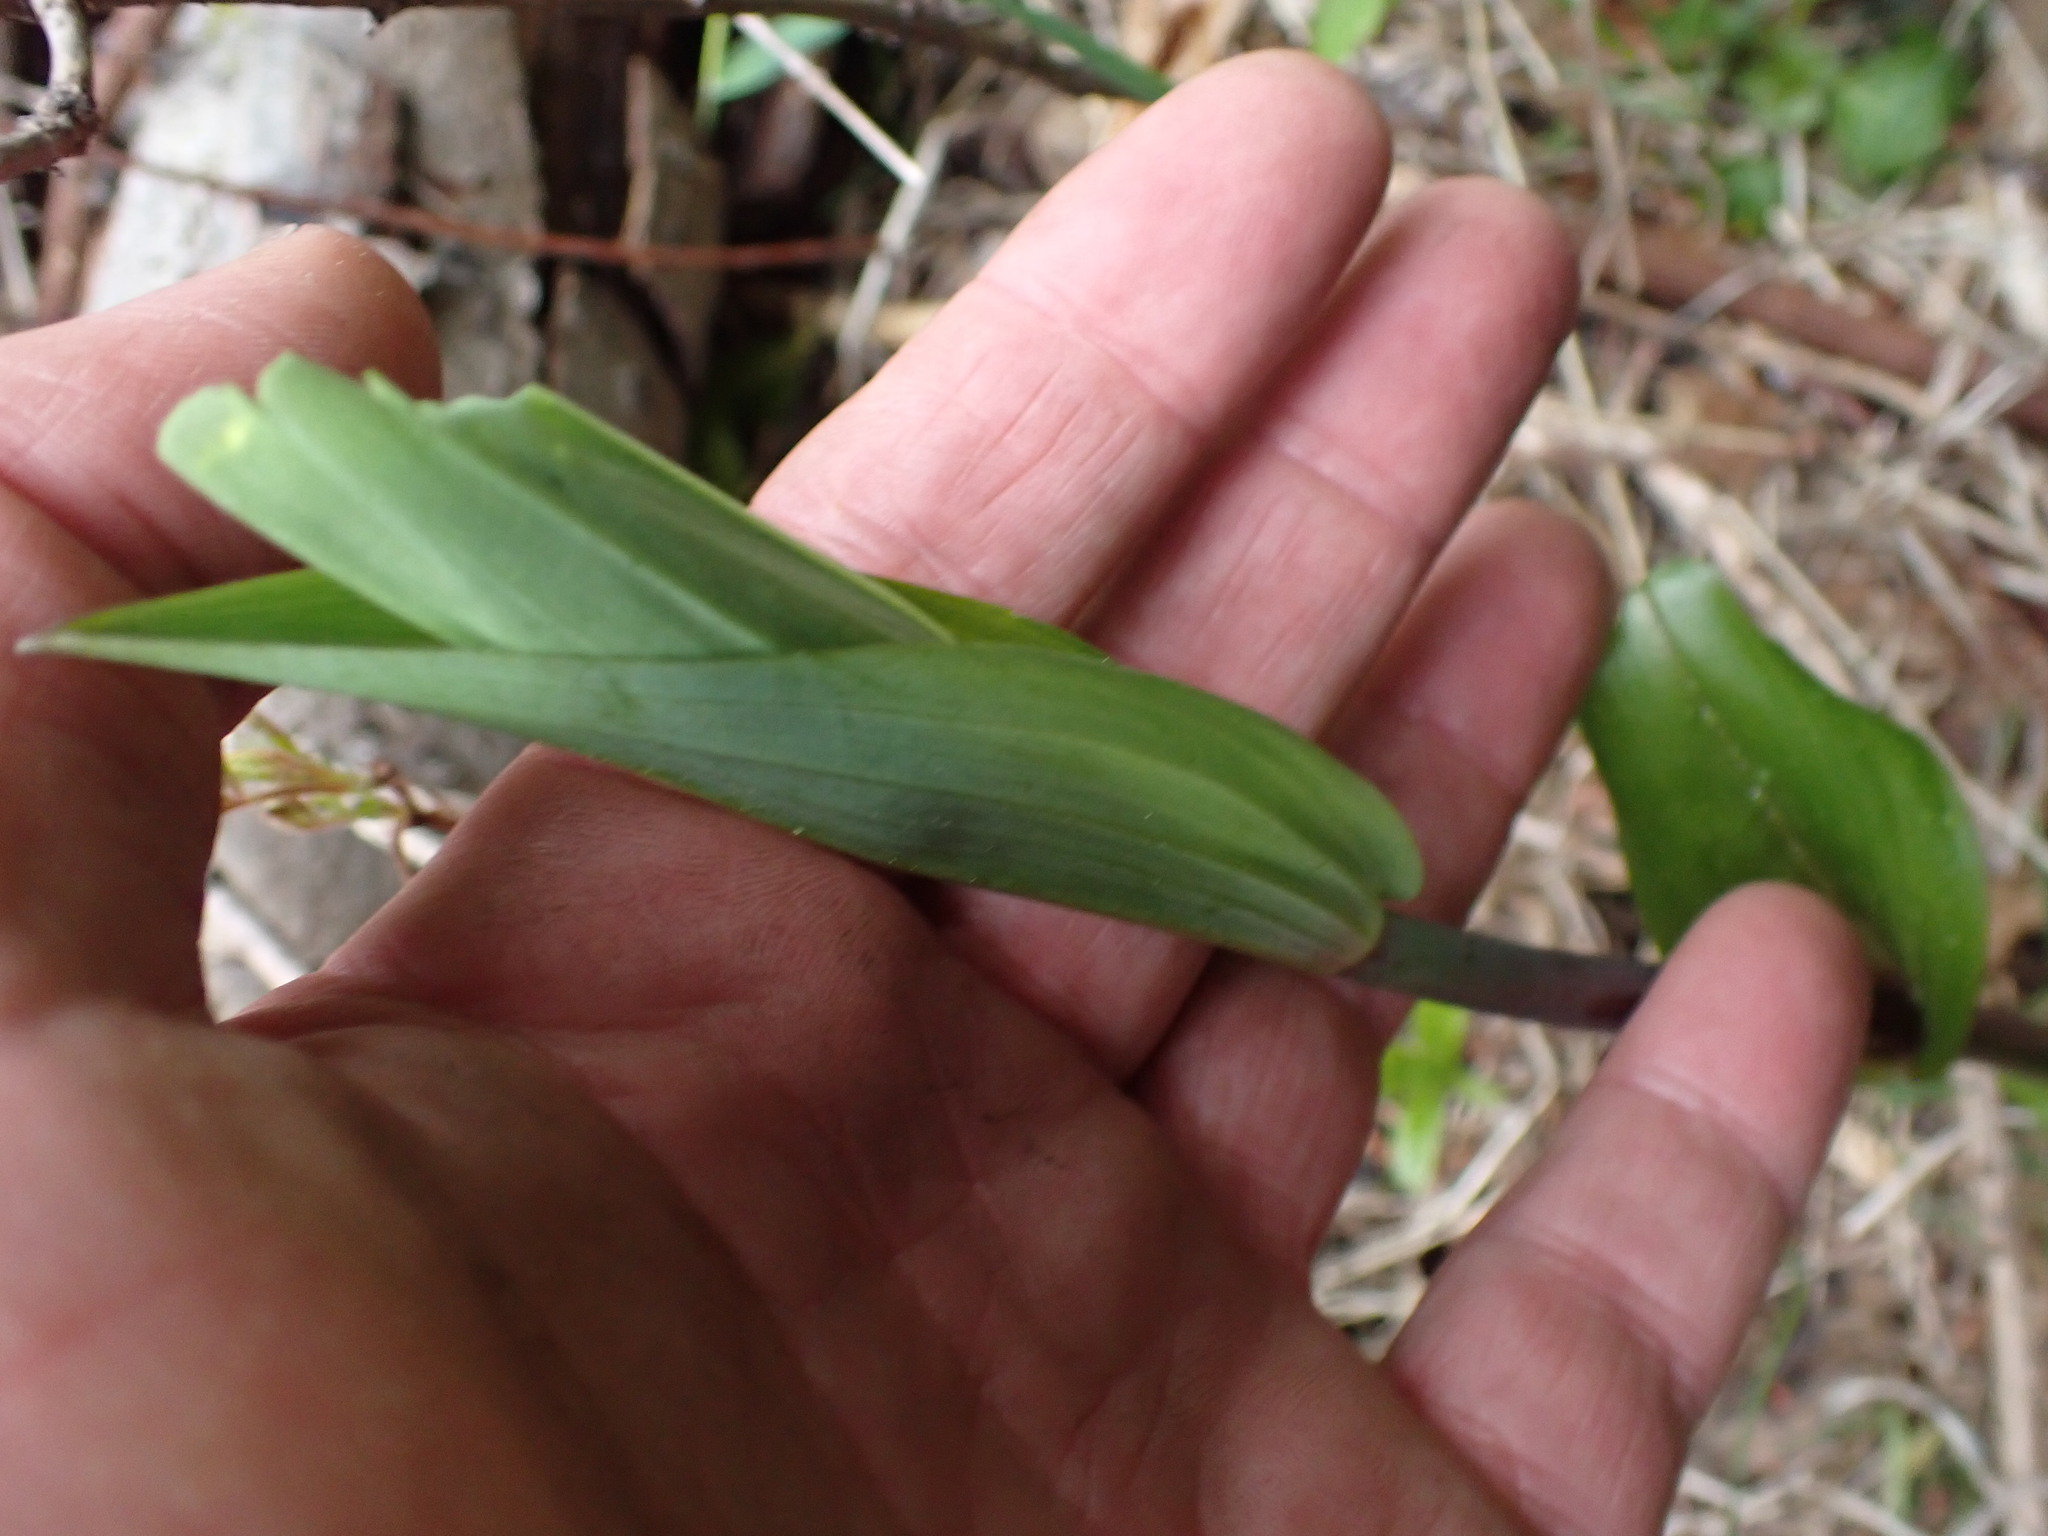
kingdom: Plantae
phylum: Tracheophyta
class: Liliopsida
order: Liliales
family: Liliaceae
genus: Streptopus
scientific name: Streptopus amplexifolius
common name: Clasp twisted stalk
